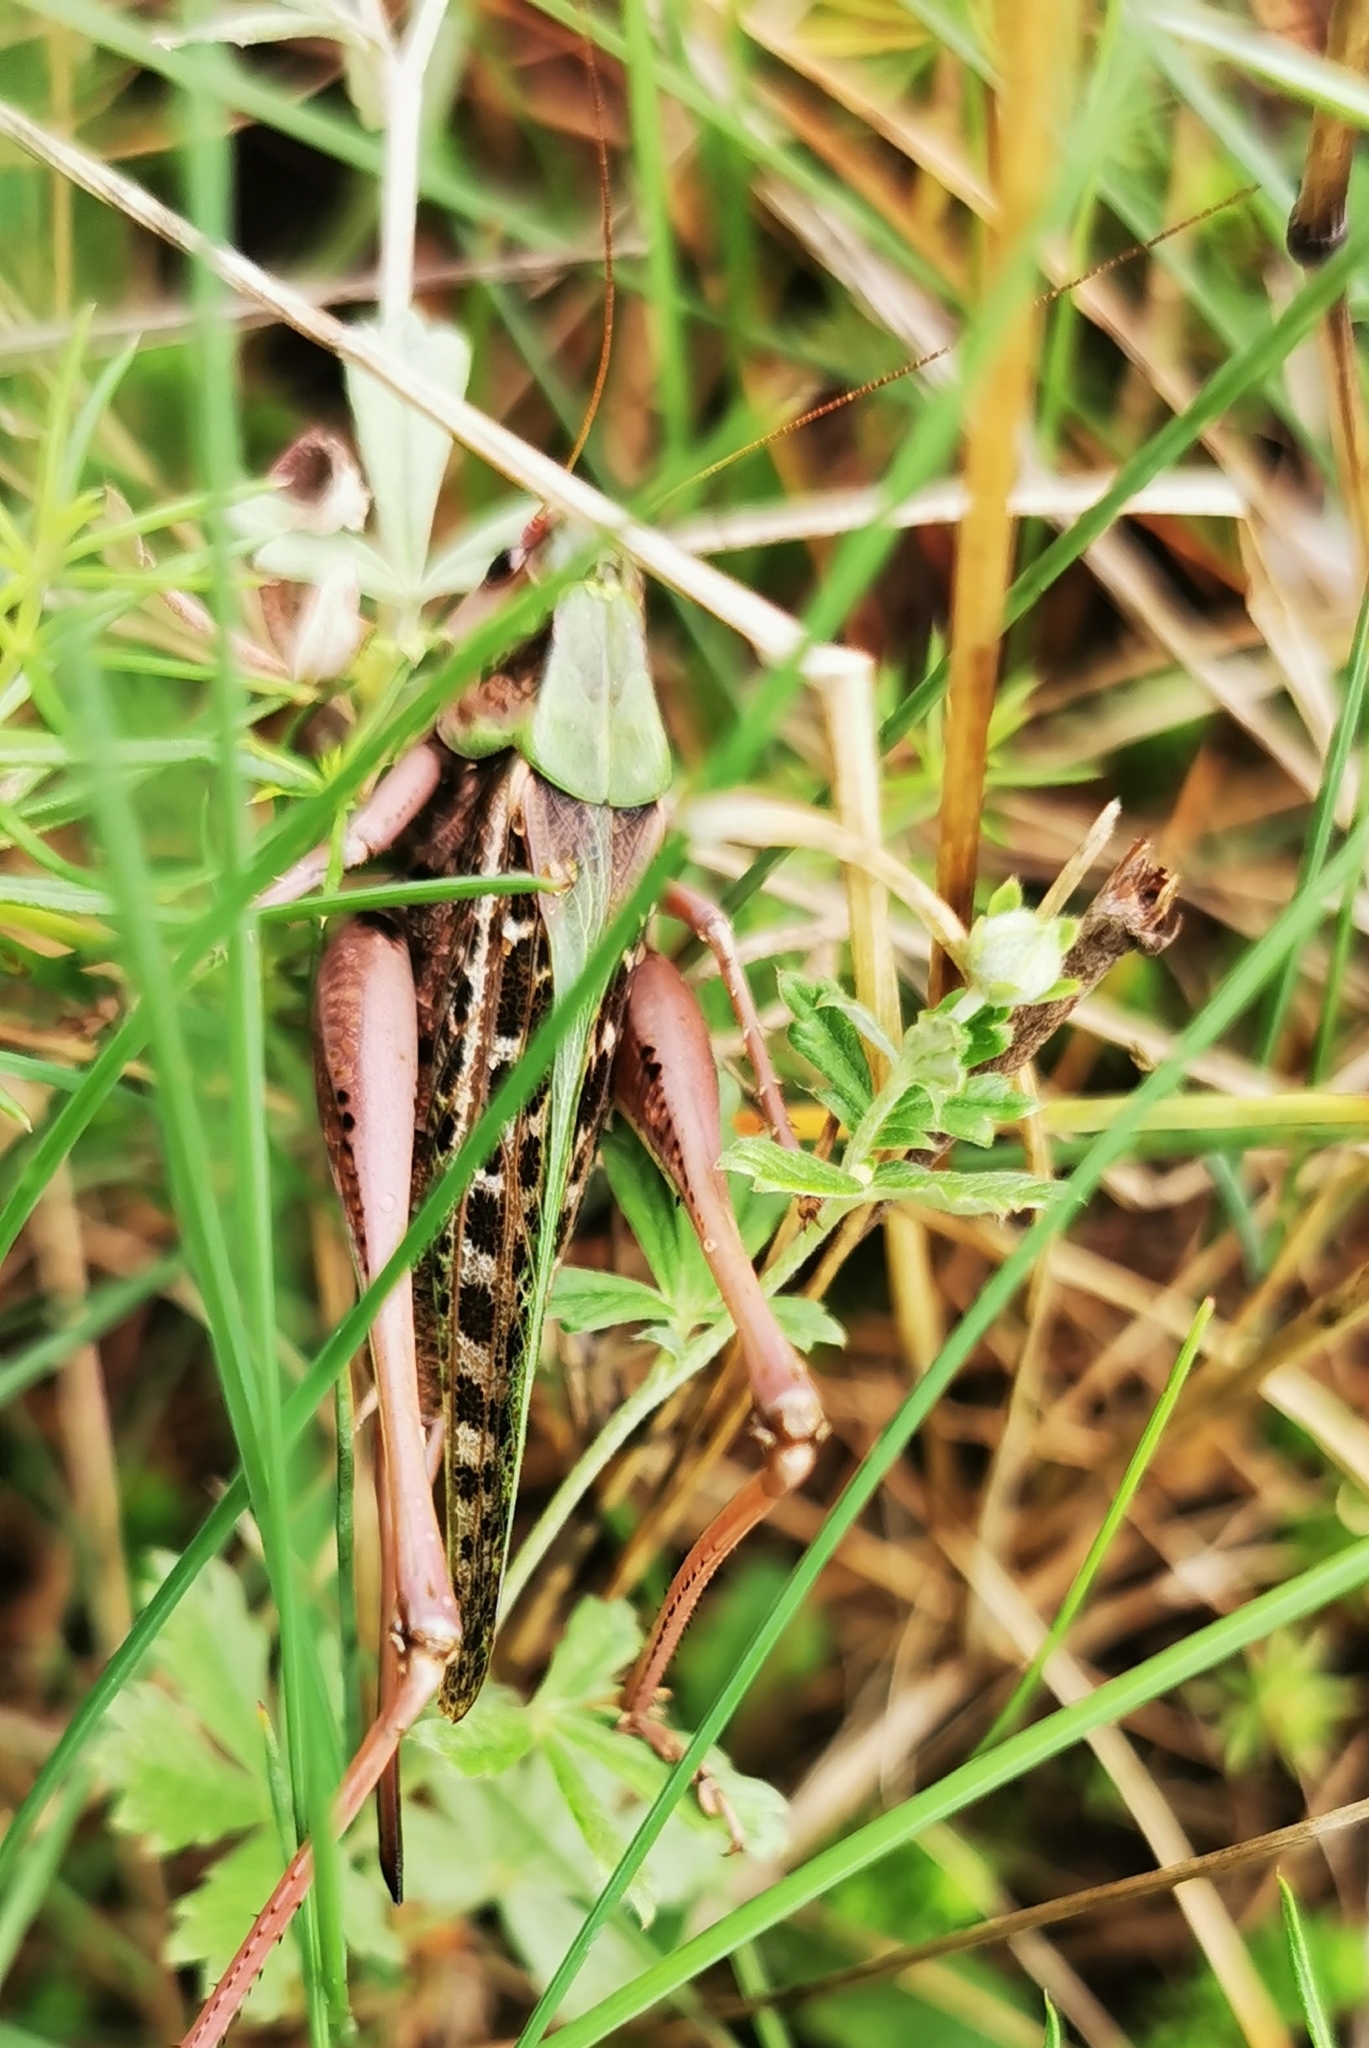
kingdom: Animalia
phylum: Arthropoda
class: Insecta
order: Orthoptera
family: Tettigoniidae
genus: Decticus
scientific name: Decticus verrucivorus
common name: Wart-biter
